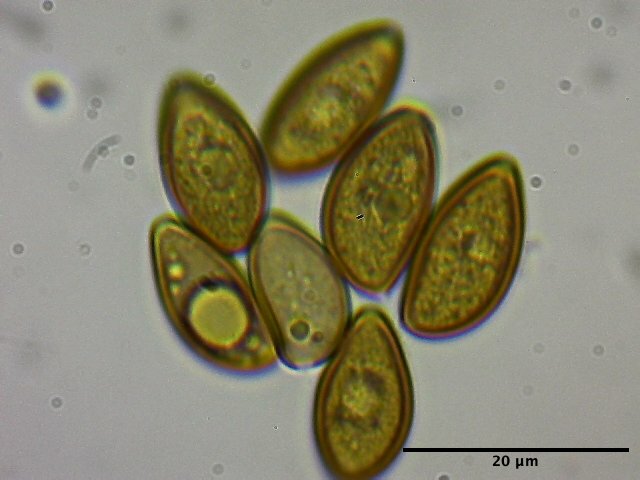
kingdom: Fungi
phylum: Basidiomycota
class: Agaricomycetes
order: Agaricales
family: Strophariaceae
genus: Hypholoma
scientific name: Hypholoma myosotis
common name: Olive brownie
